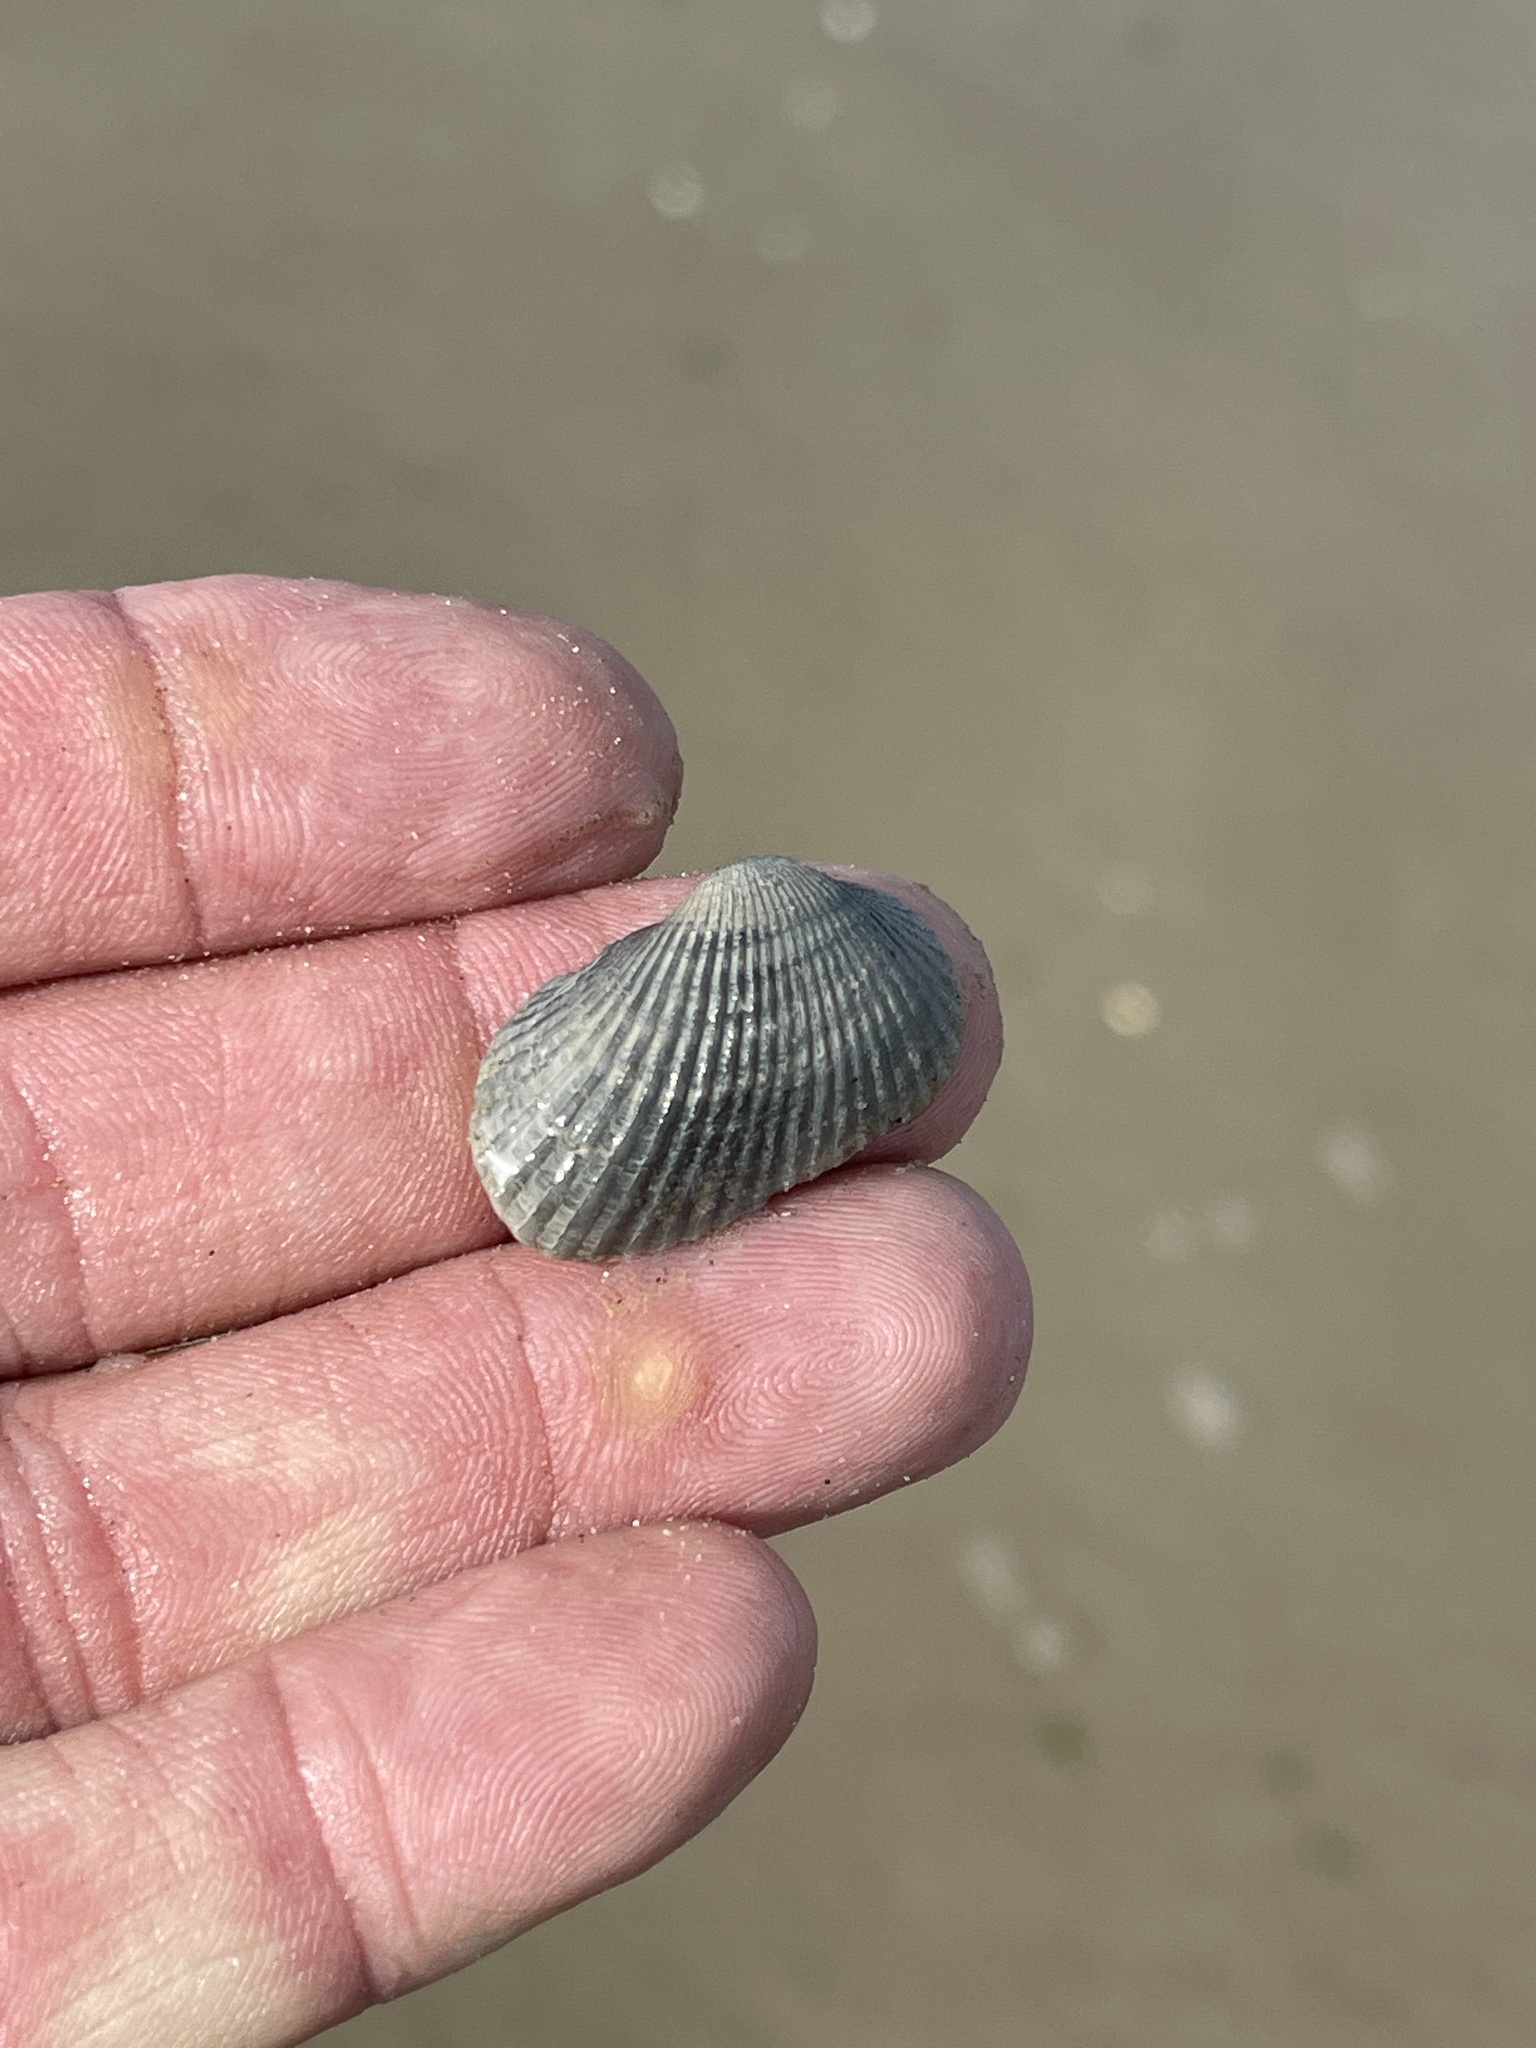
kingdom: Animalia
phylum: Mollusca
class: Bivalvia
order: Arcida
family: Arcidae
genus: Anadara
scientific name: Anadara transversa
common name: Transverse ark
